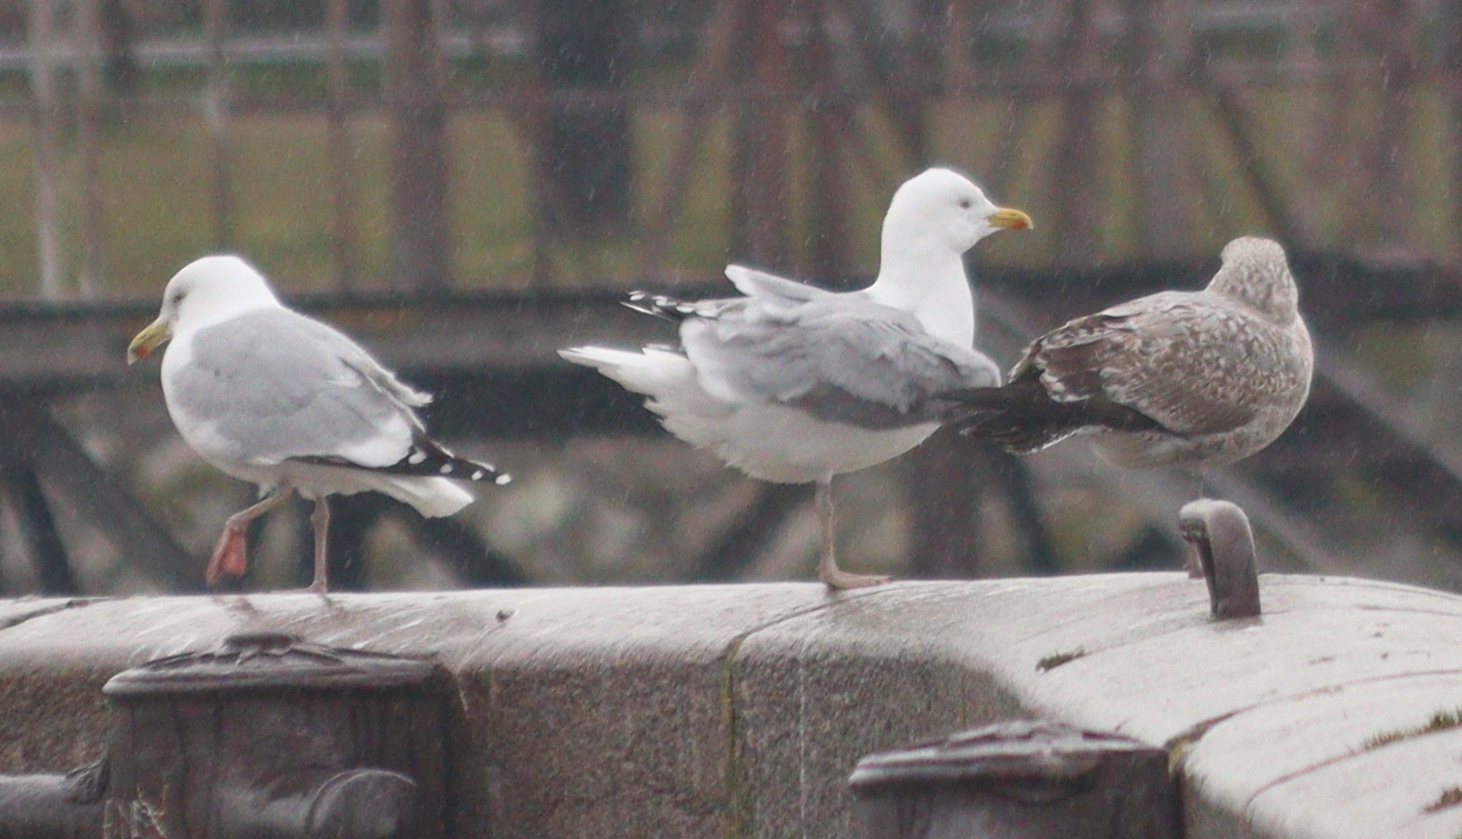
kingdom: Animalia
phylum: Chordata
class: Aves
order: Charadriiformes
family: Laridae
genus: Larus
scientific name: Larus argentatus
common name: Herring gull
